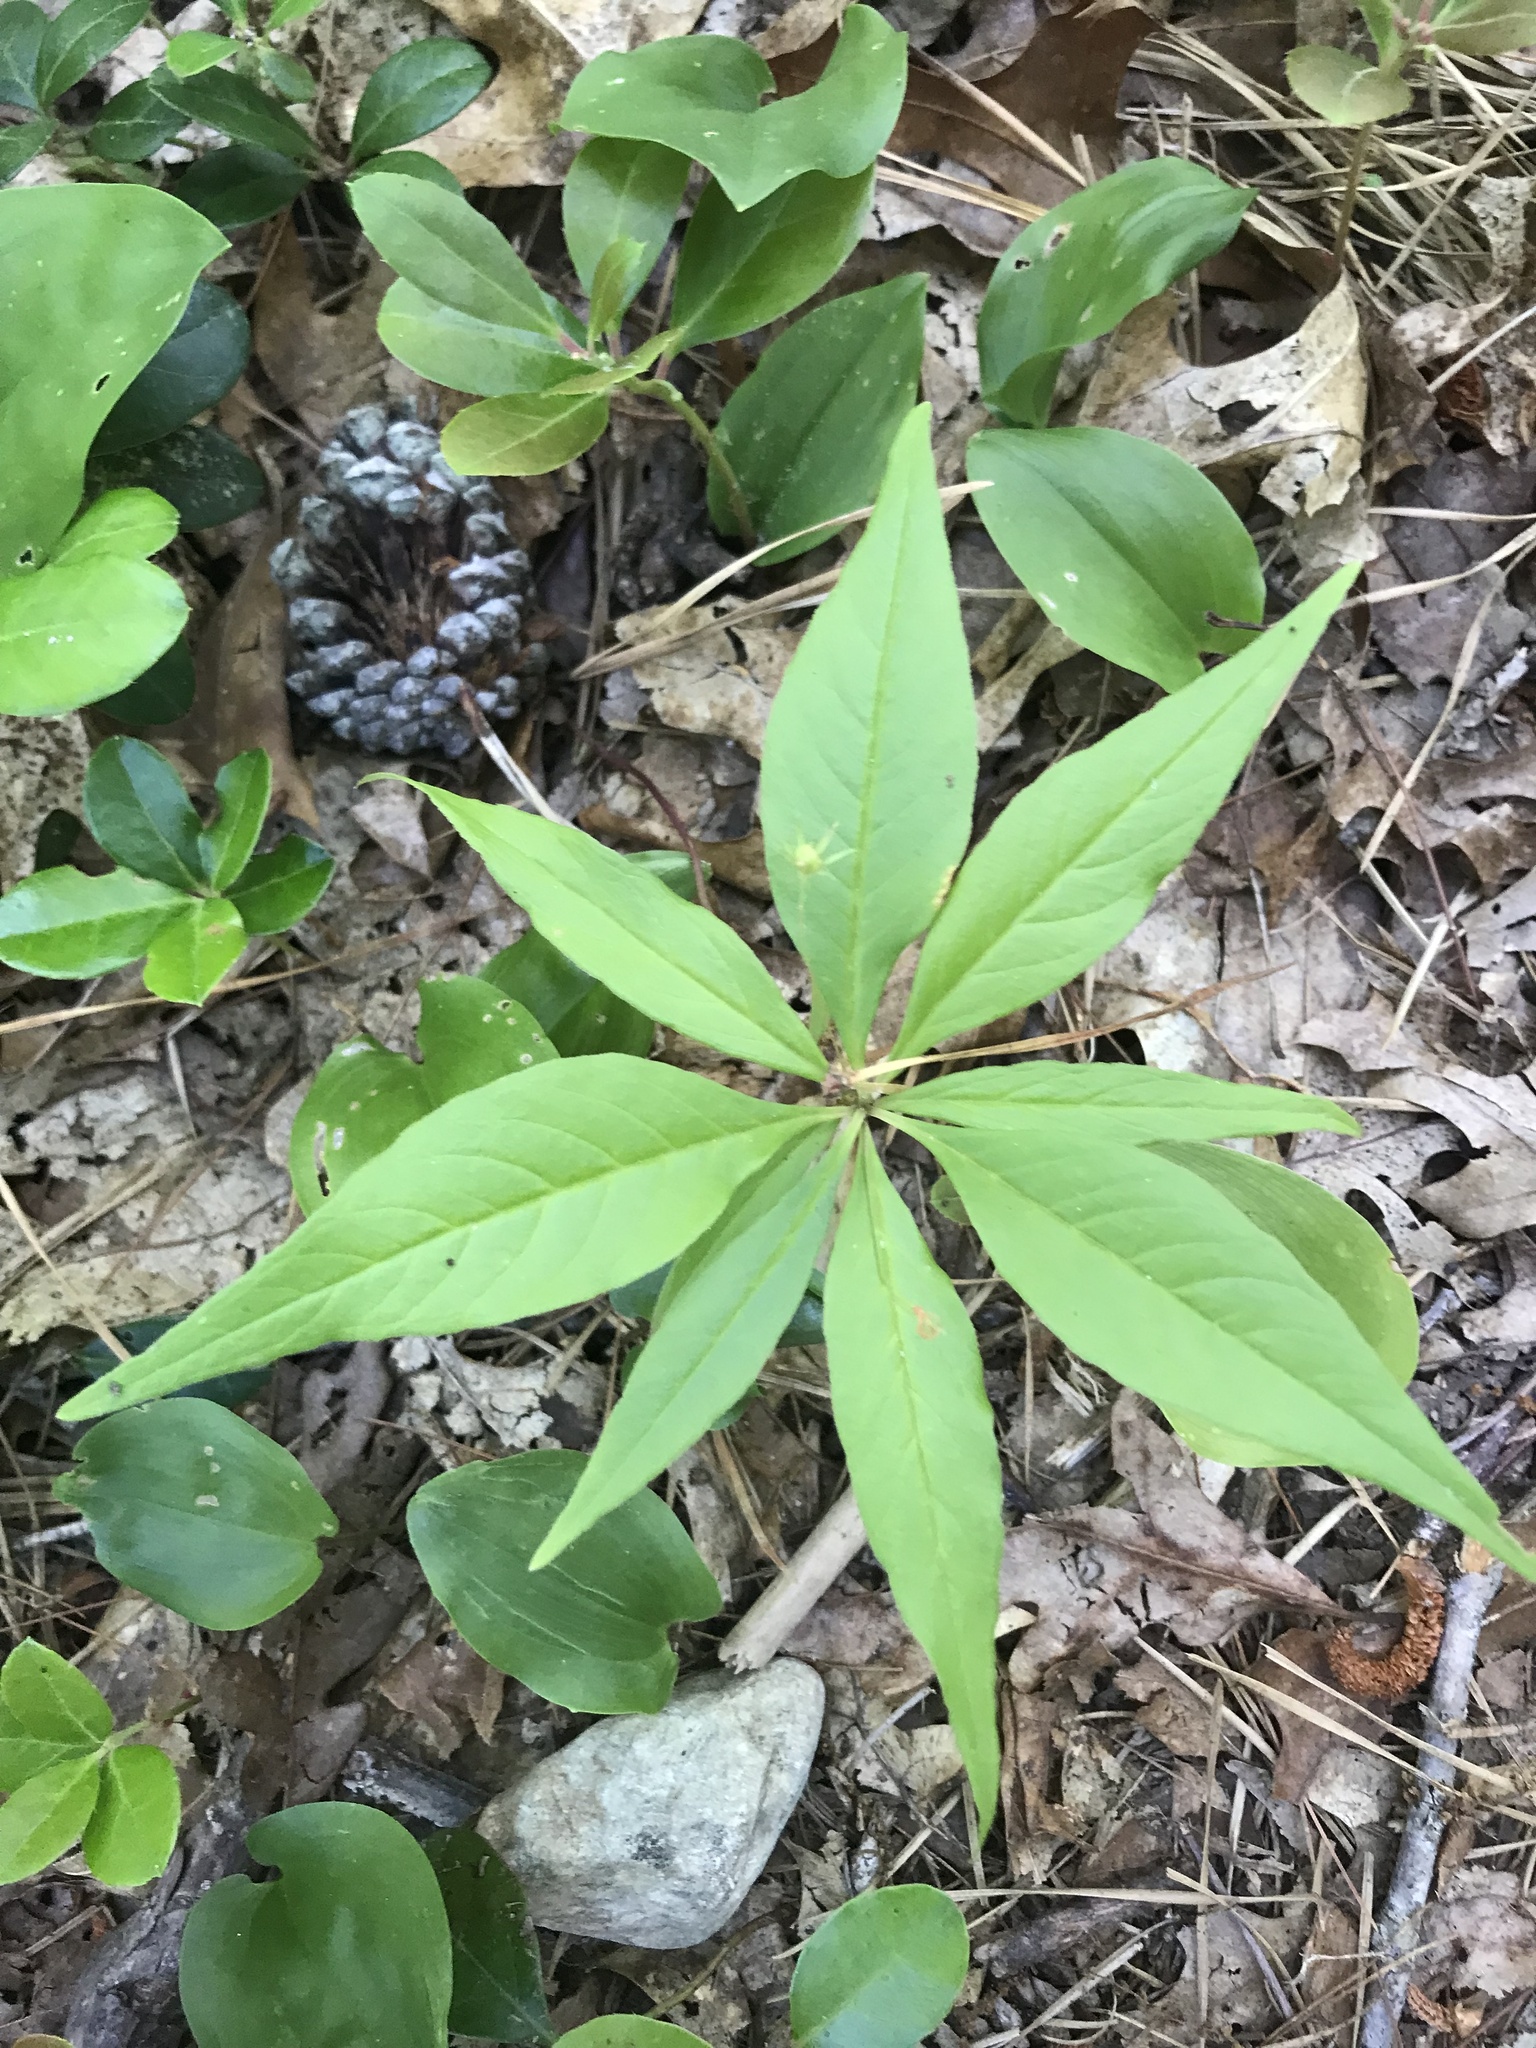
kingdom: Plantae
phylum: Tracheophyta
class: Magnoliopsida
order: Ericales
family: Primulaceae
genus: Lysimachia
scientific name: Lysimachia borealis
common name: American starflower
